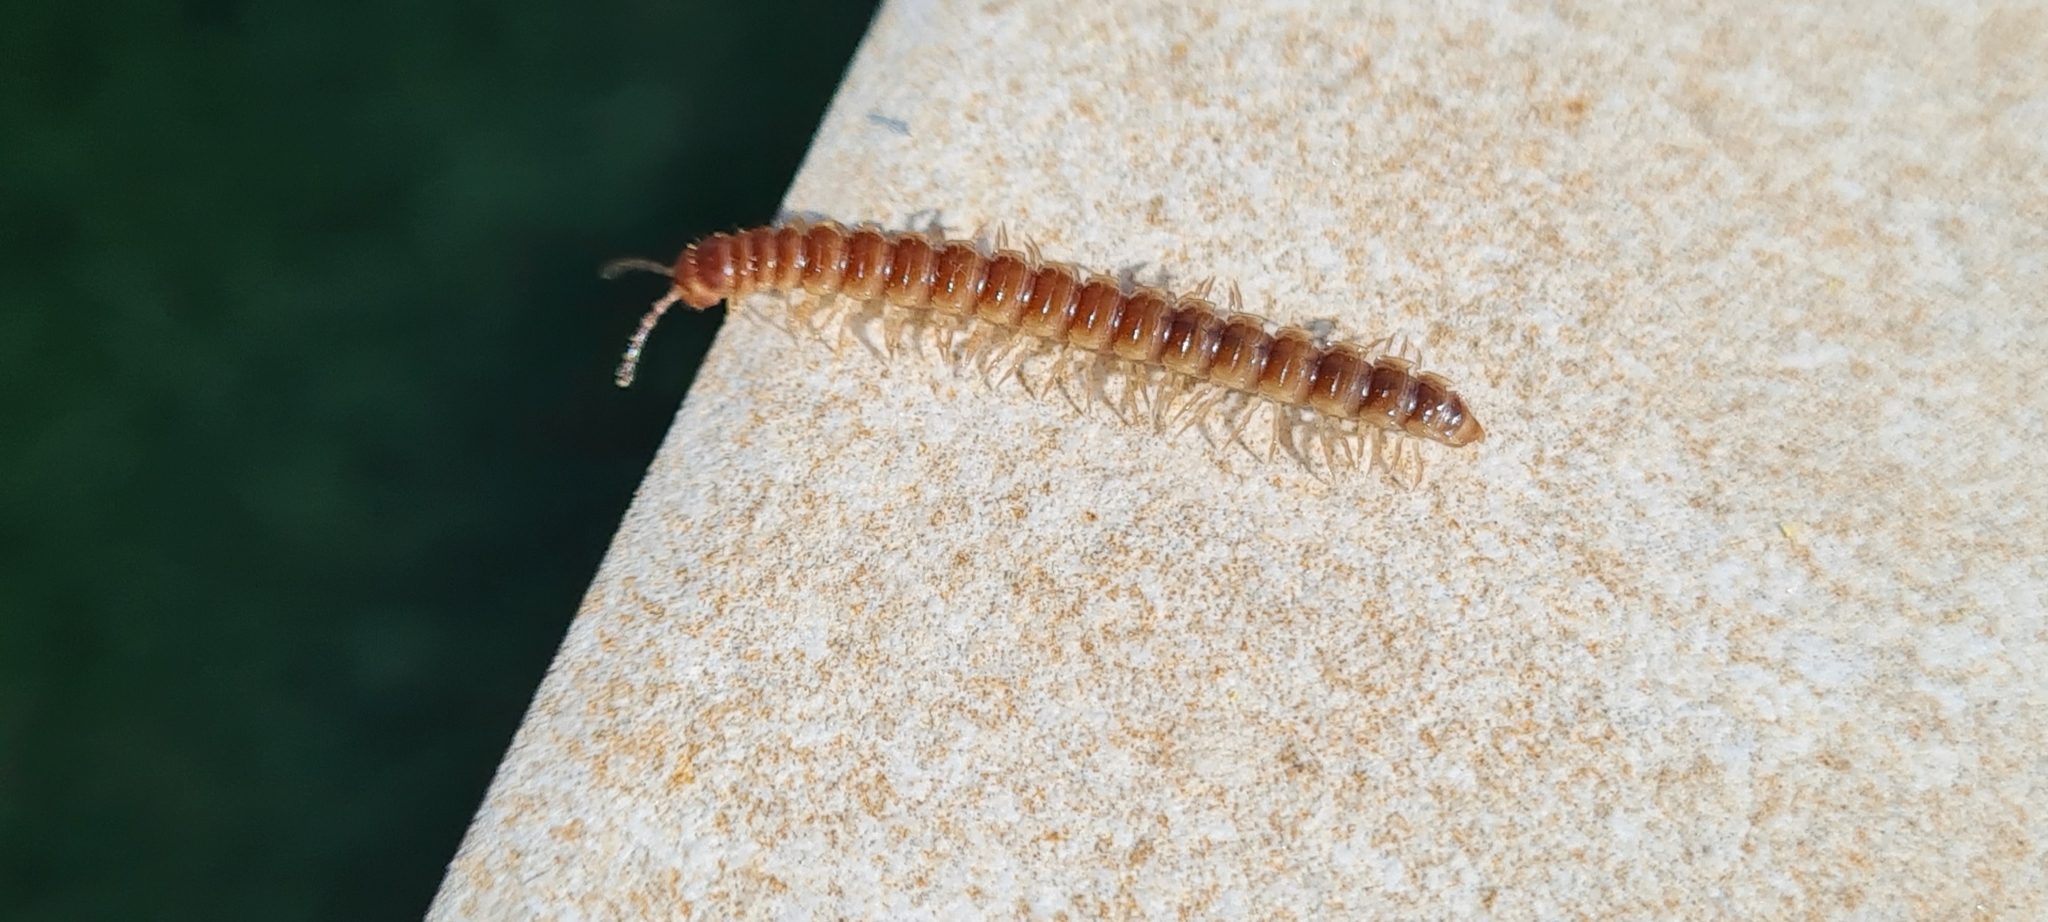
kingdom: Animalia
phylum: Arthropoda
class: Diplopoda
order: Polydesmida
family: Paradoxosomatidae
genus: Oxidus
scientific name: Oxidus gracilis
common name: Greenhouse millipede
